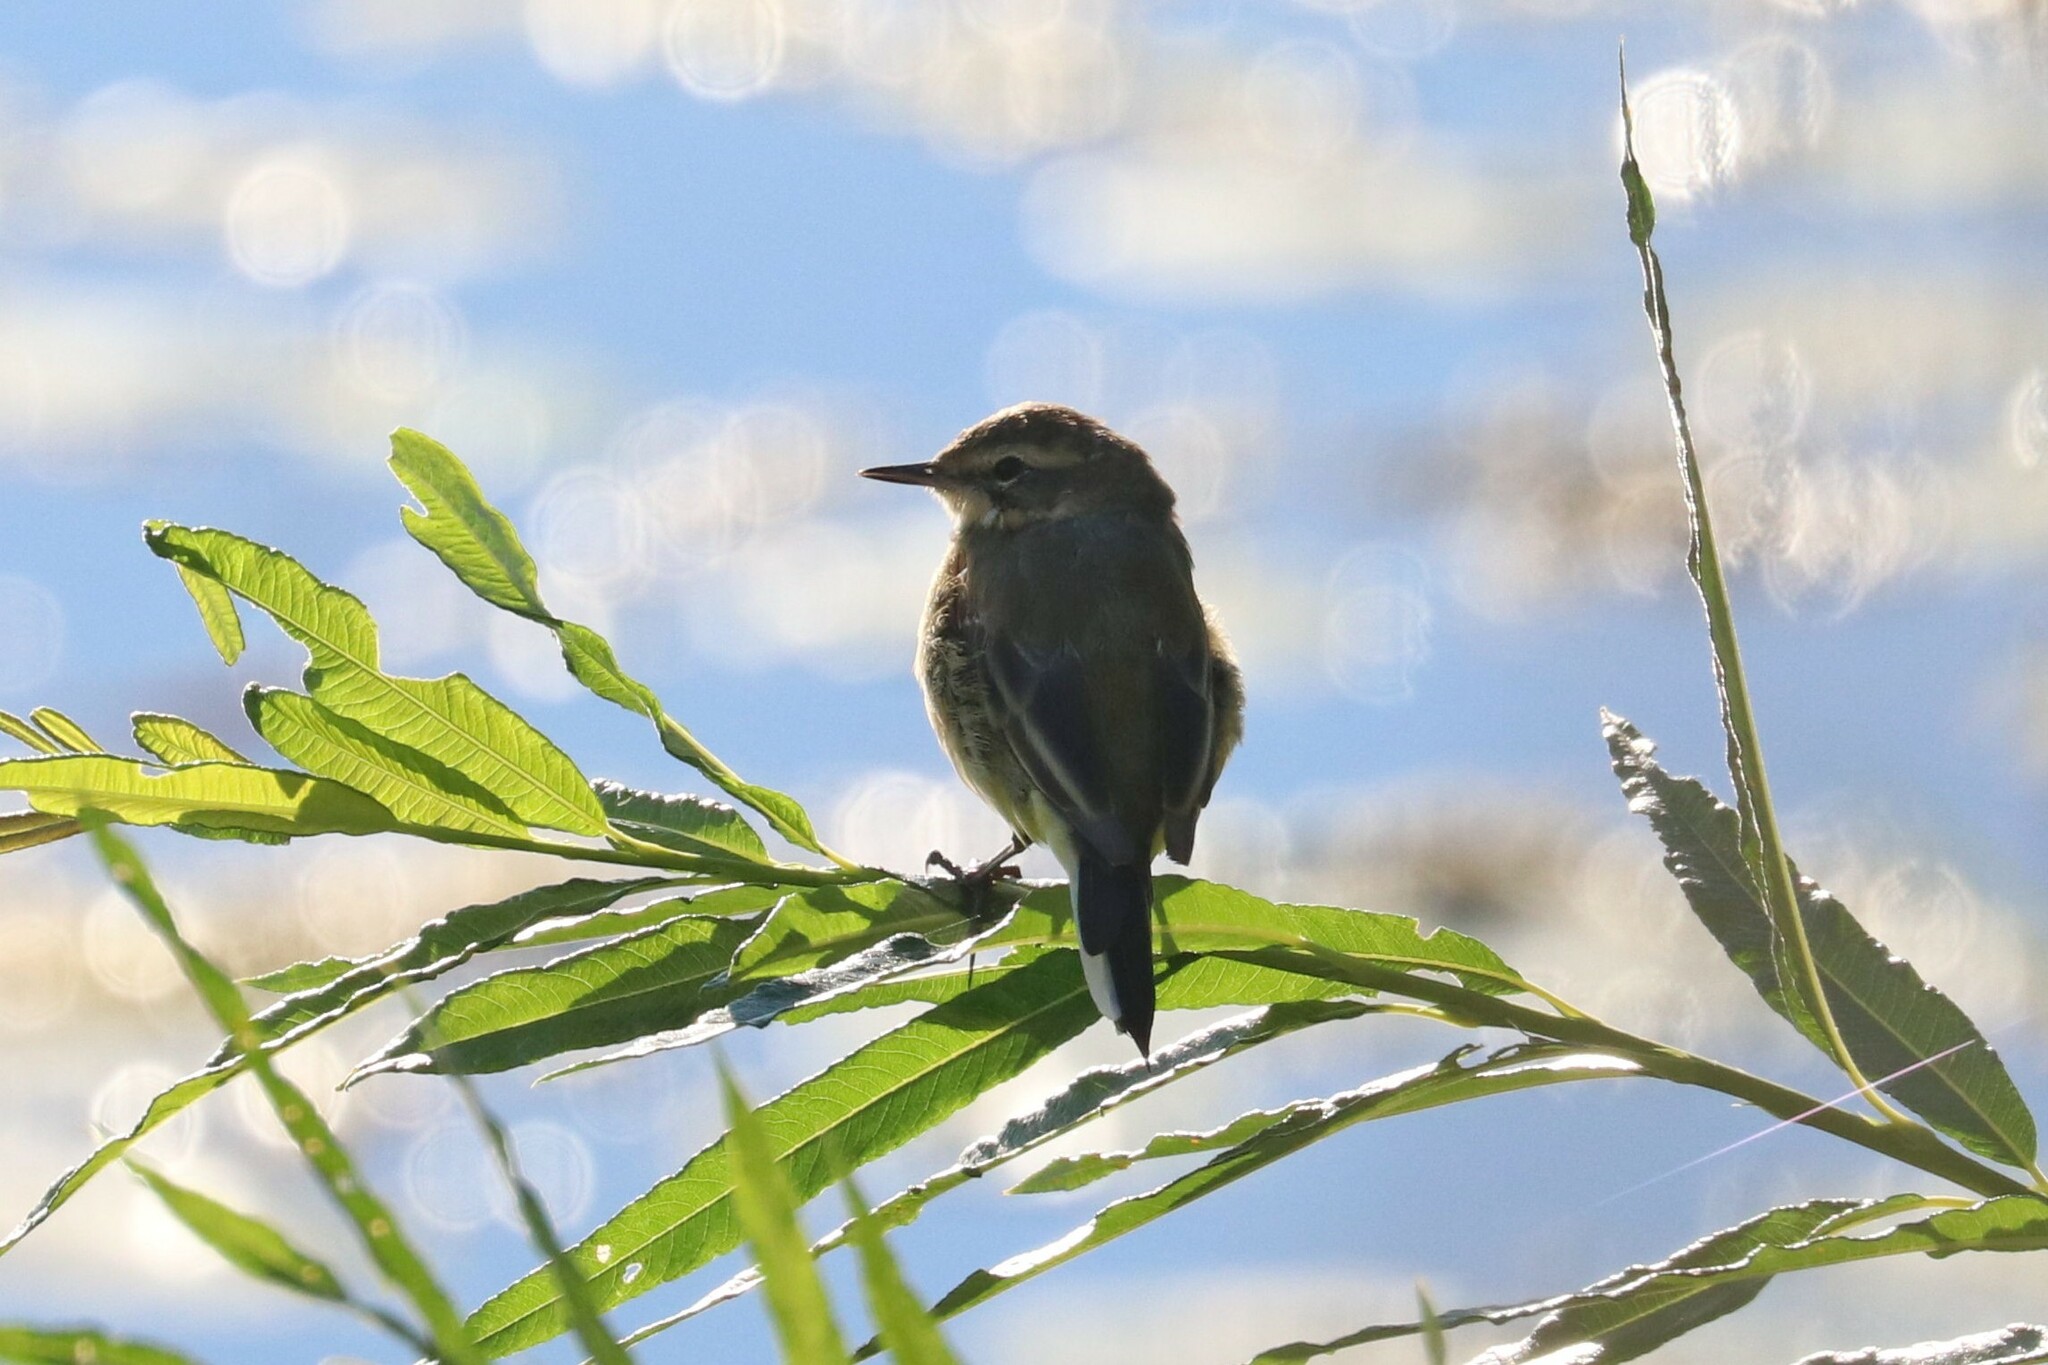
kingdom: Animalia
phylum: Chordata
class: Aves
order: Passeriformes
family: Motacillidae
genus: Motacilla
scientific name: Motacilla flava
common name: Western yellow wagtail
